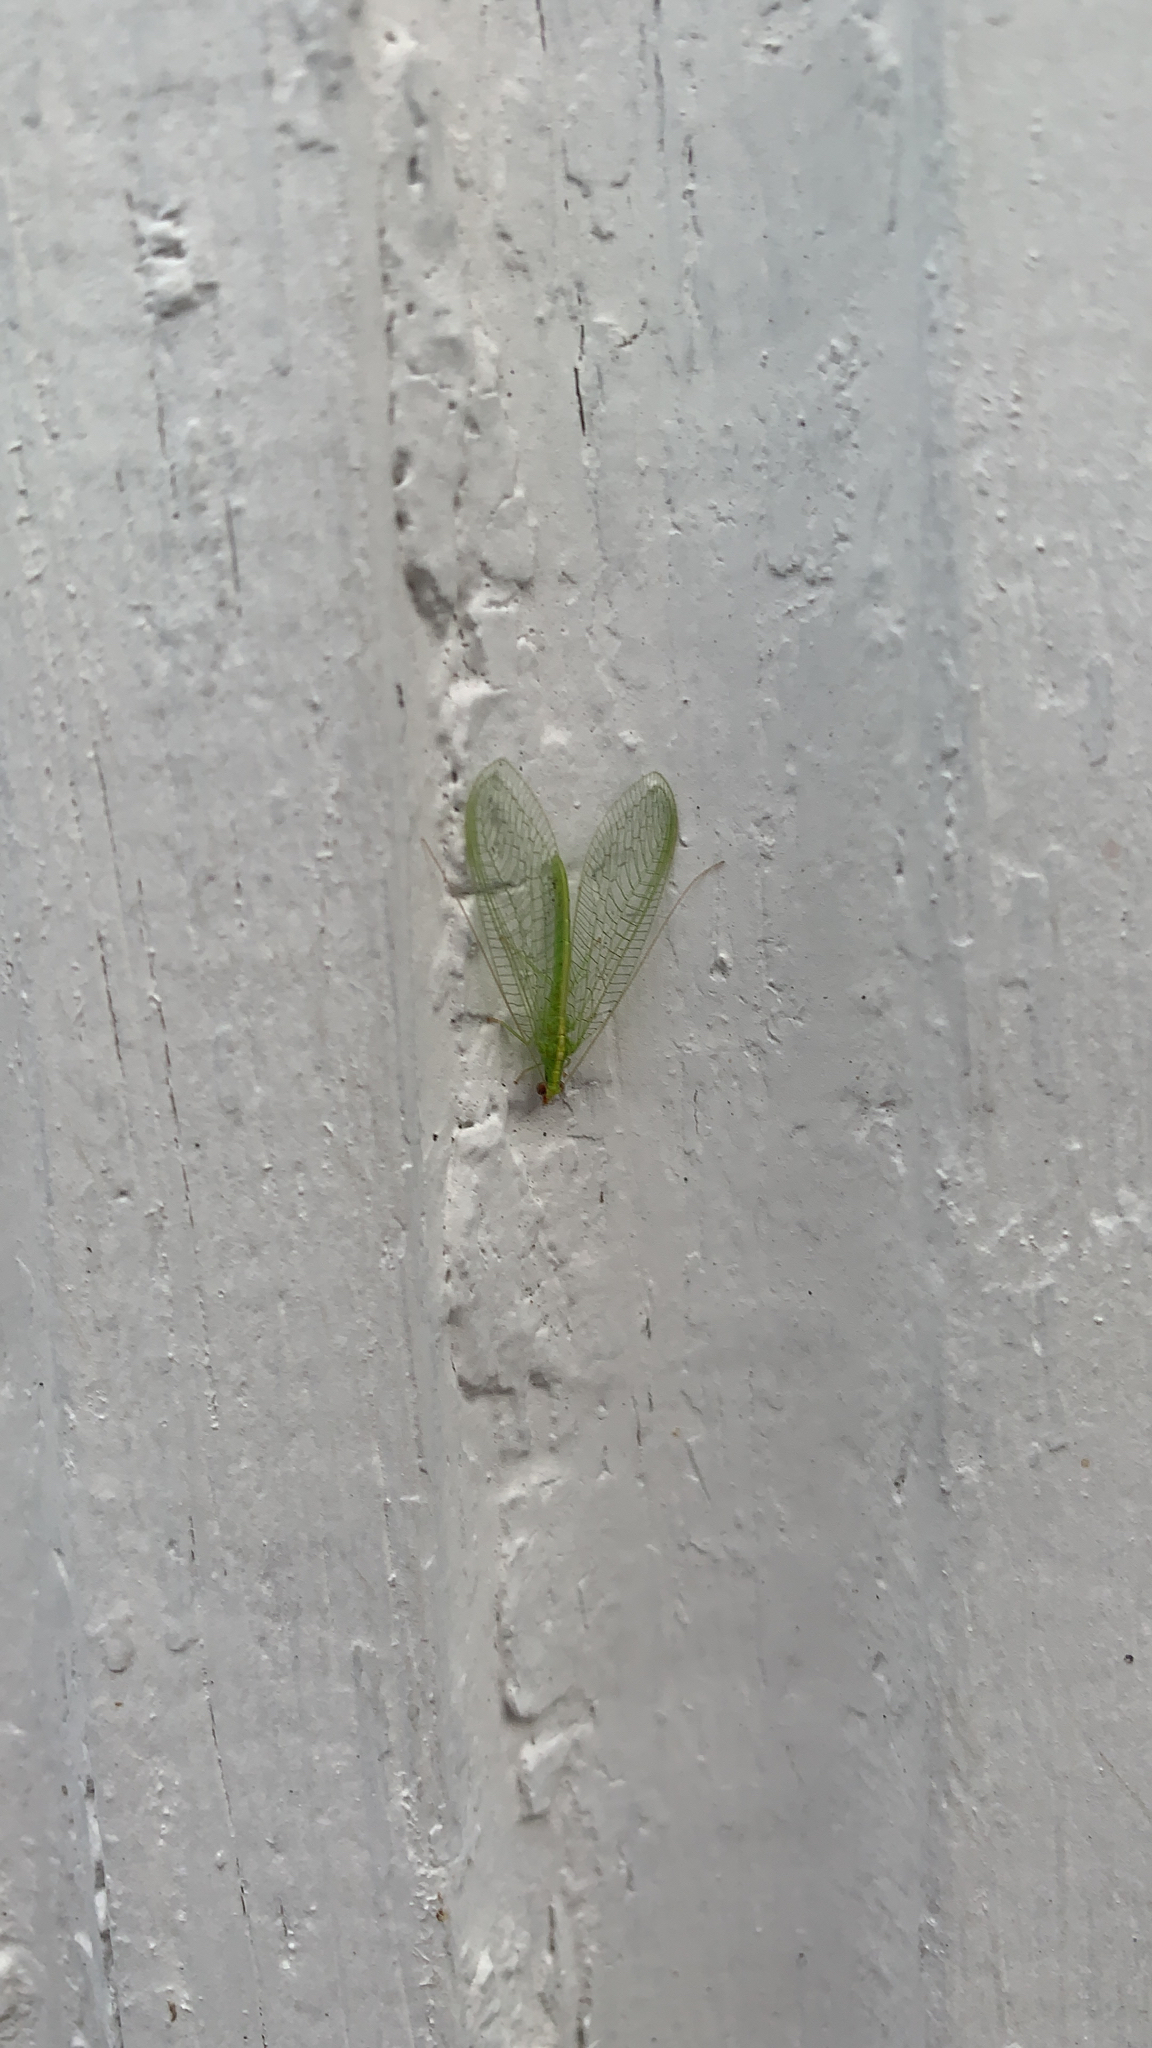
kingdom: Animalia
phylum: Arthropoda
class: Insecta
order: Neuroptera
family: Chrysopidae
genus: Chrysoperla
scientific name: Chrysoperla rufilabris
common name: Red-lipped green lacewing
